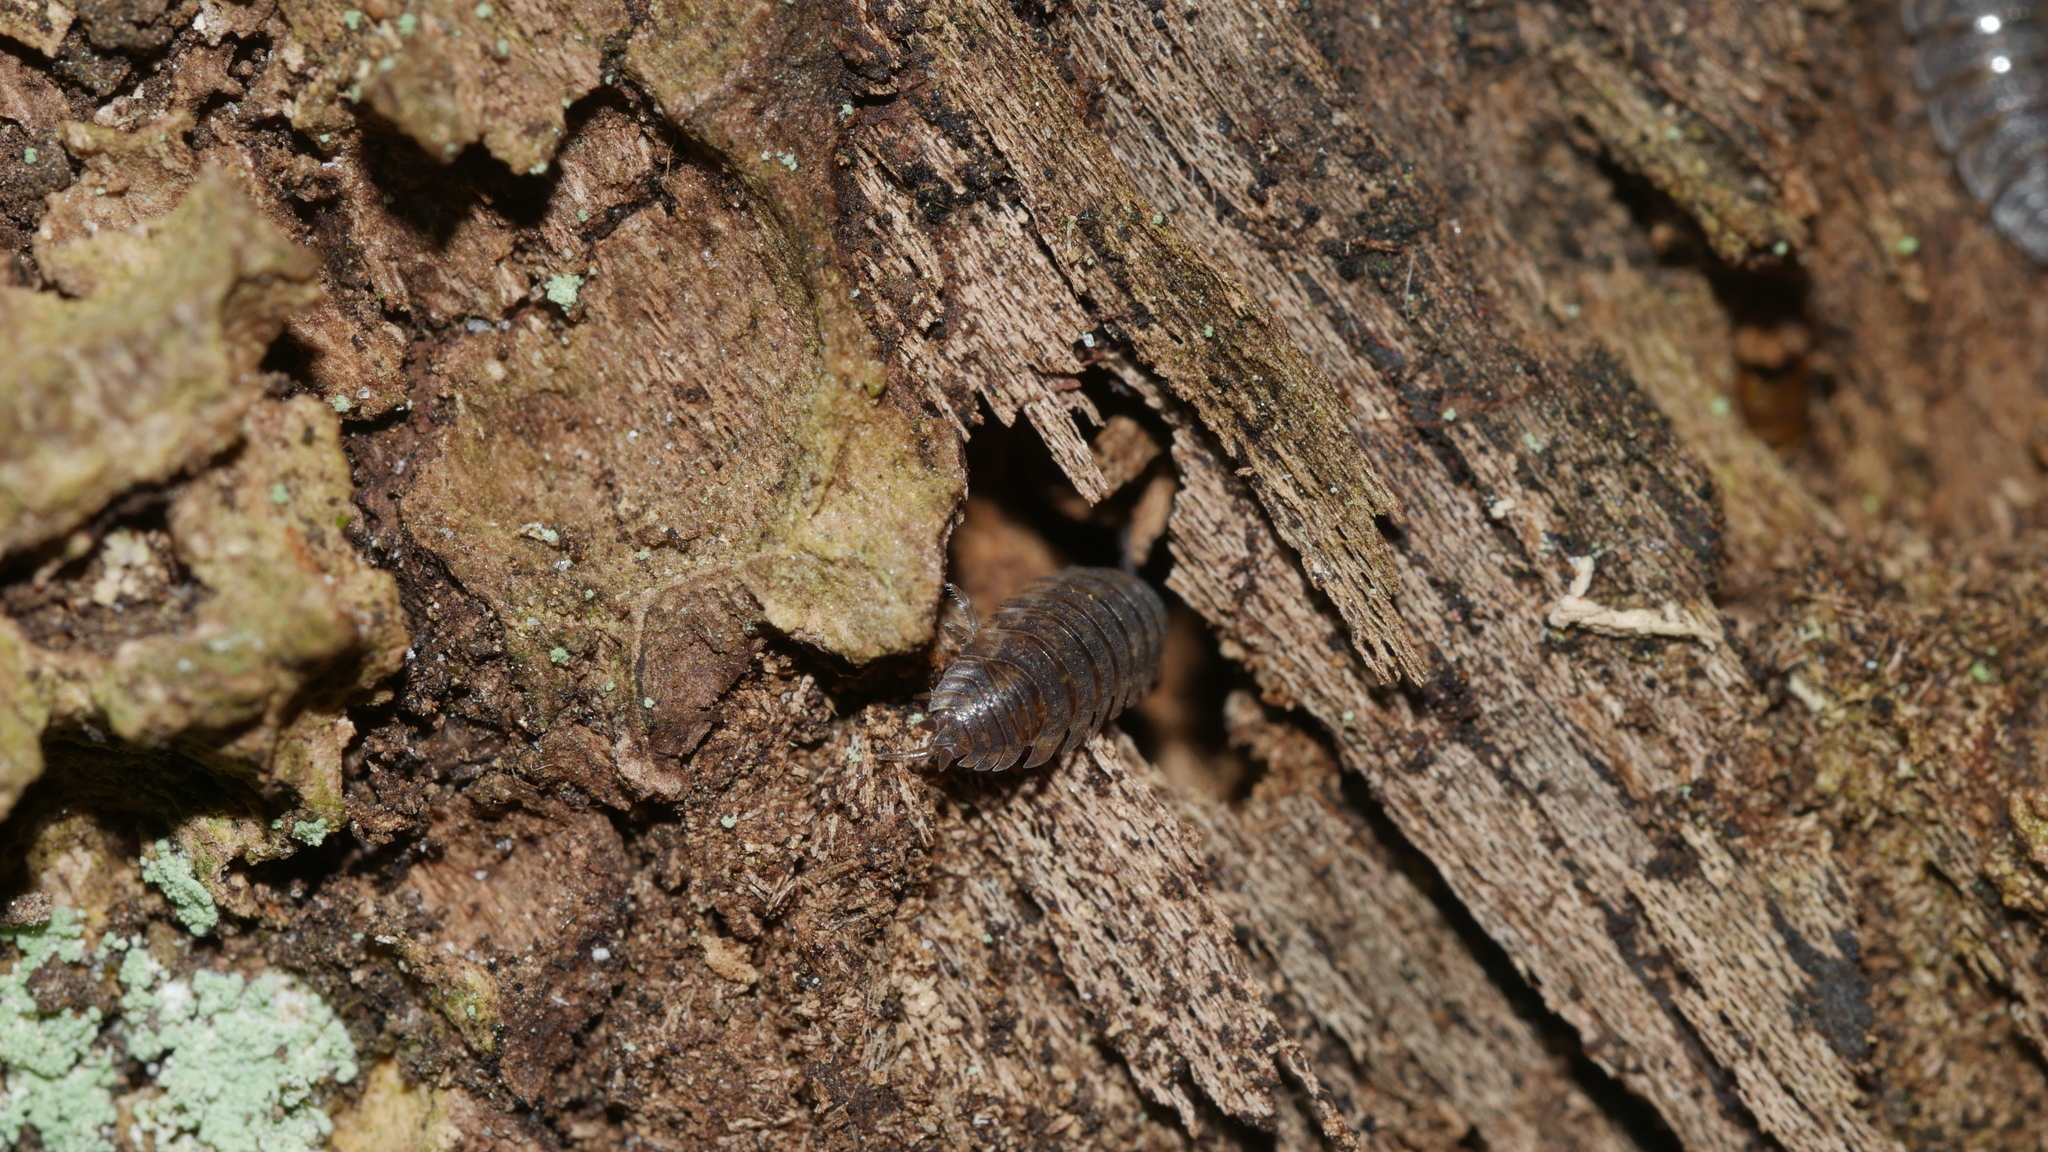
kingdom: Animalia
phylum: Arthropoda
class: Malacostraca
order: Isopoda
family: Porcellionidae
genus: Porcellio
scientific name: Porcellio scaber
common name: Common rough woodlouse
